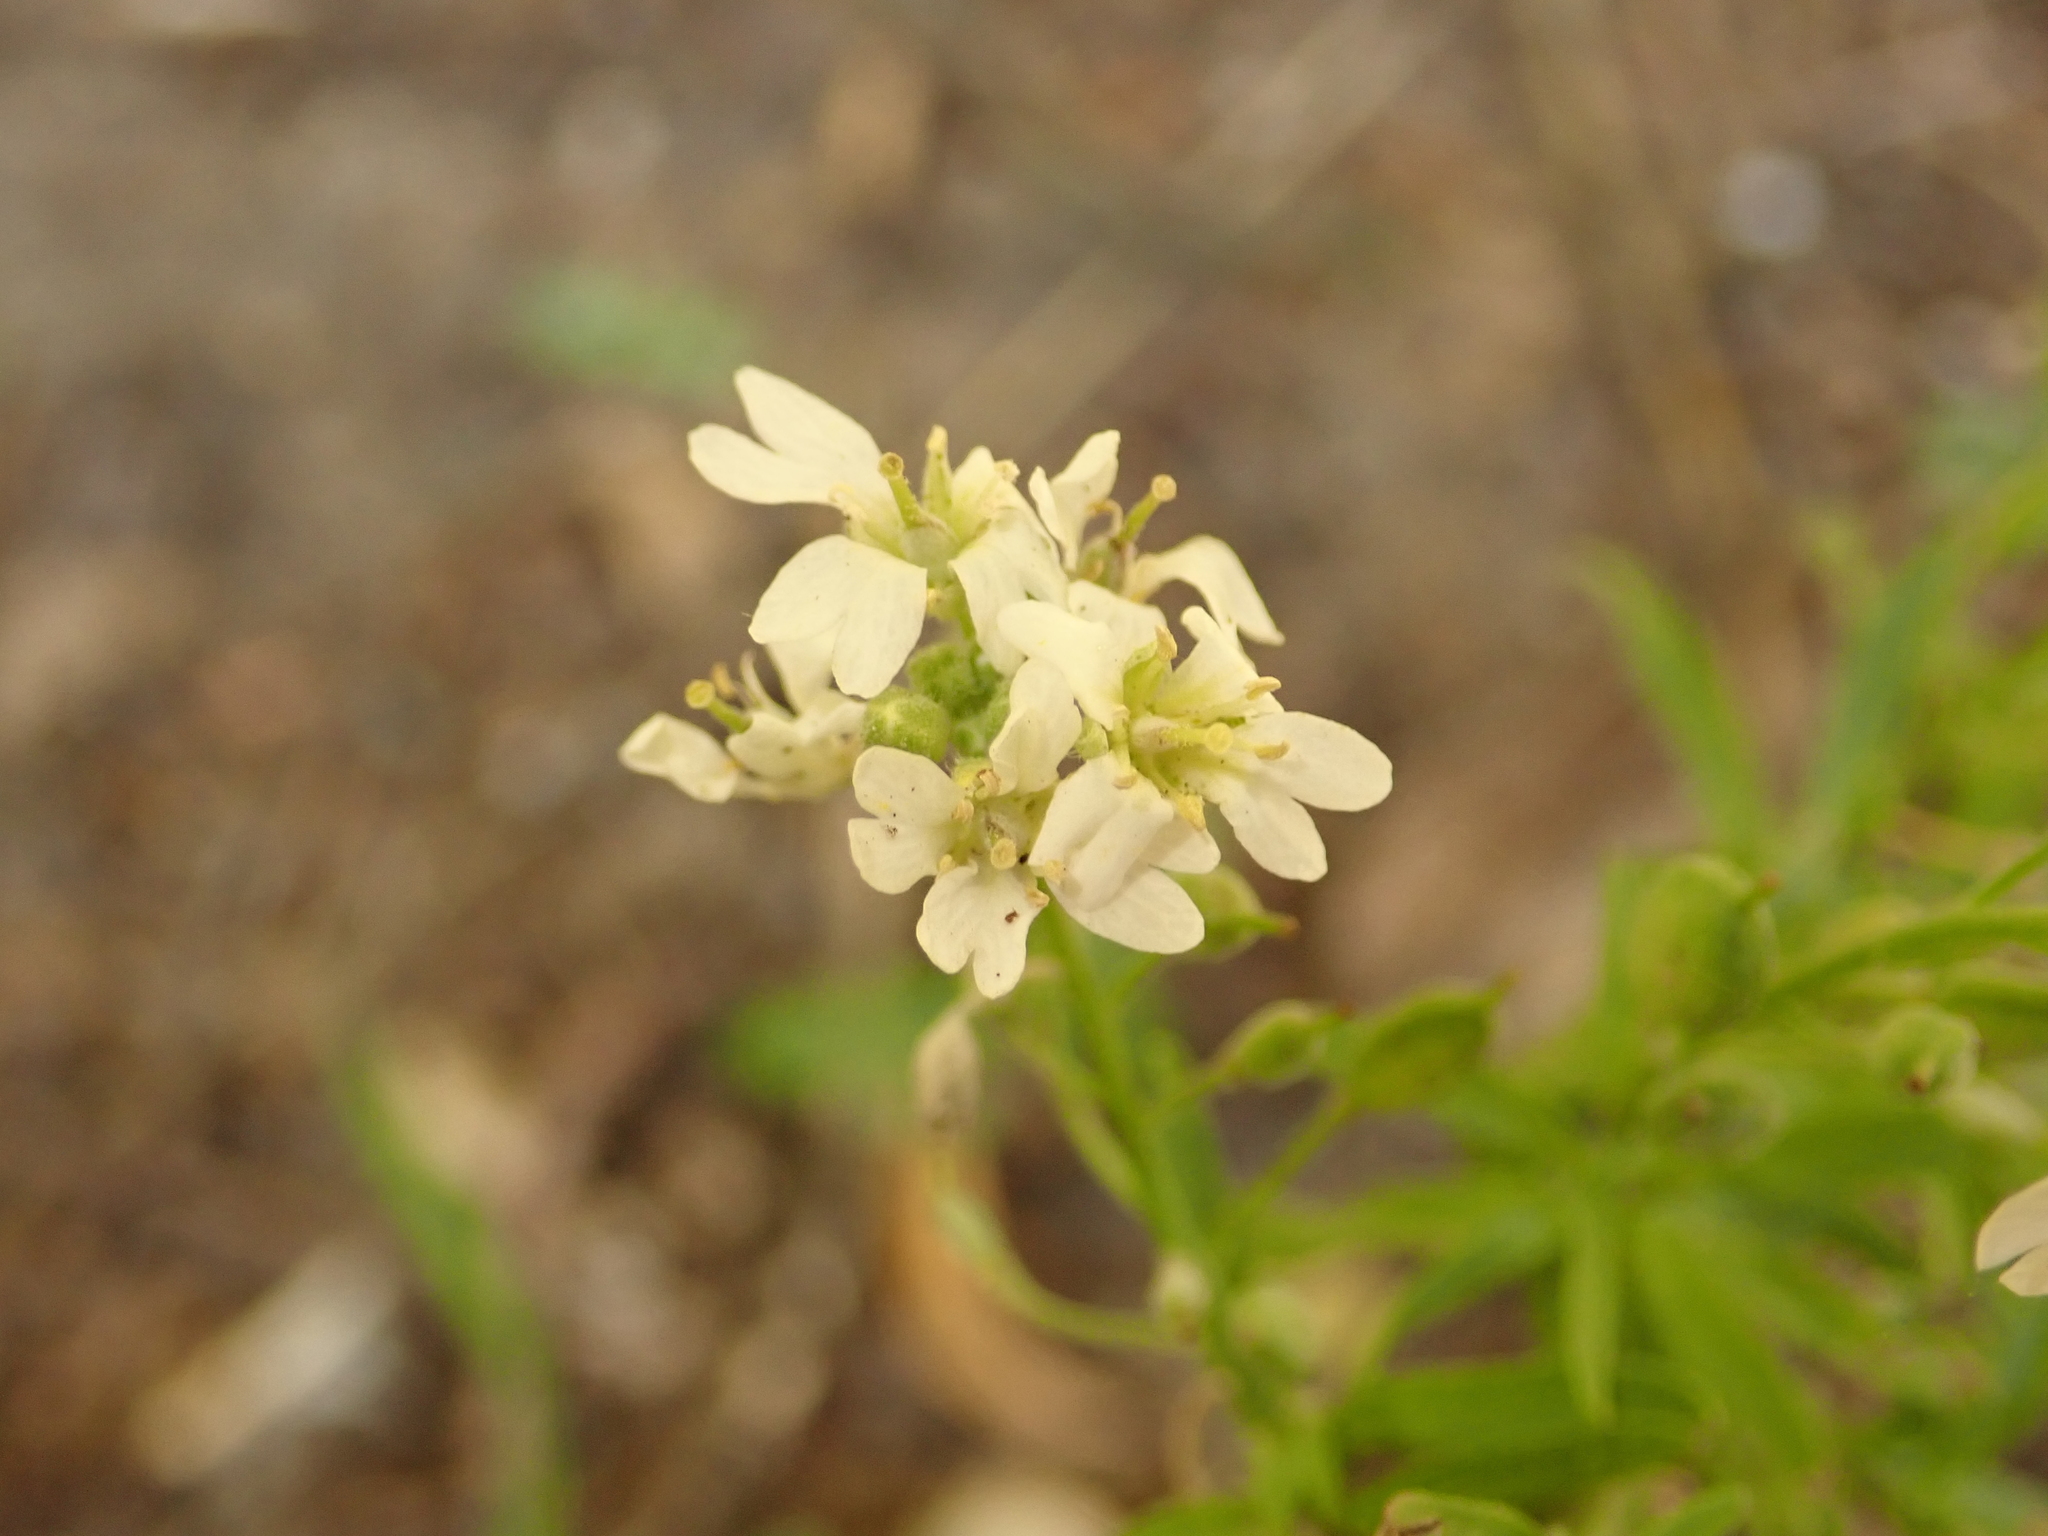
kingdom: Plantae
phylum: Tracheophyta
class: Magnoliopsida
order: Brassicales
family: Brassicaceae
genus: Berteroa
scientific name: Berteroa incana
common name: Hoary alison
